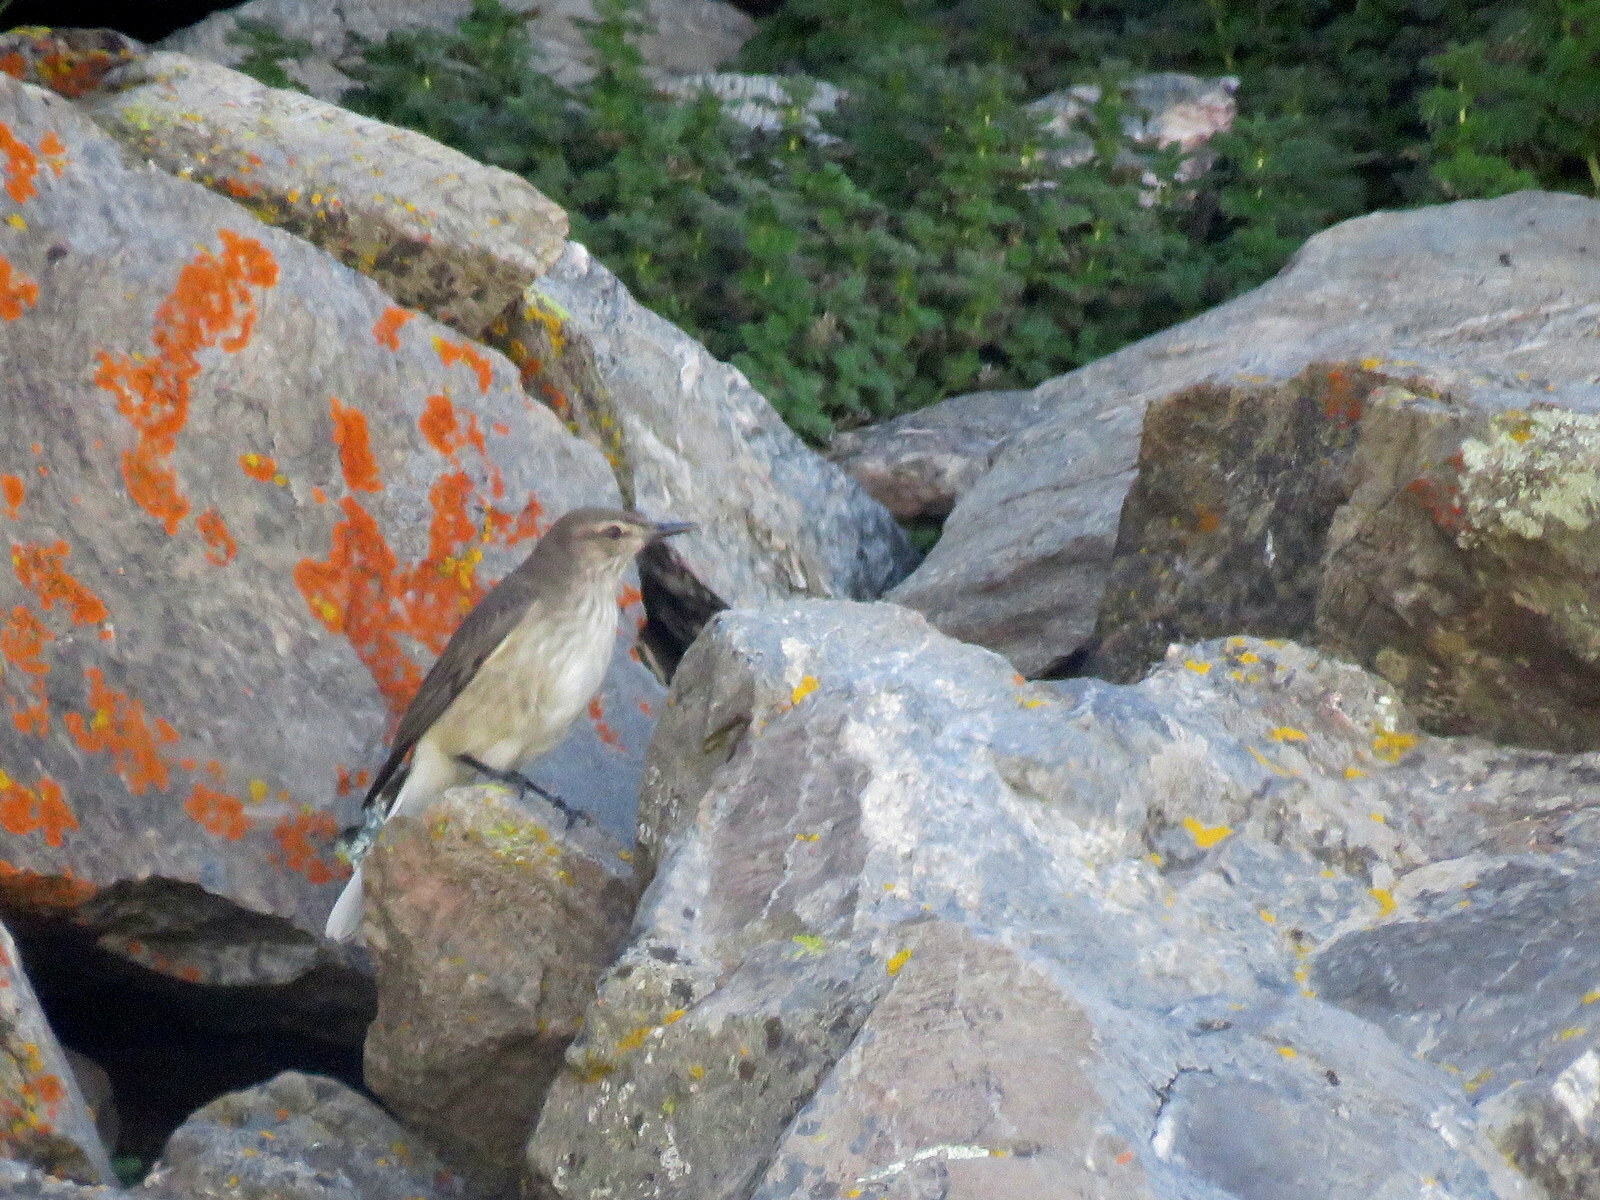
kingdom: Animalia
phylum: Chordata
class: Aves
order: Passeriformes
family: Tyrannidae
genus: Agriornis
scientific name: Agriornis montanus
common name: Black-billed shrike-tyrant
